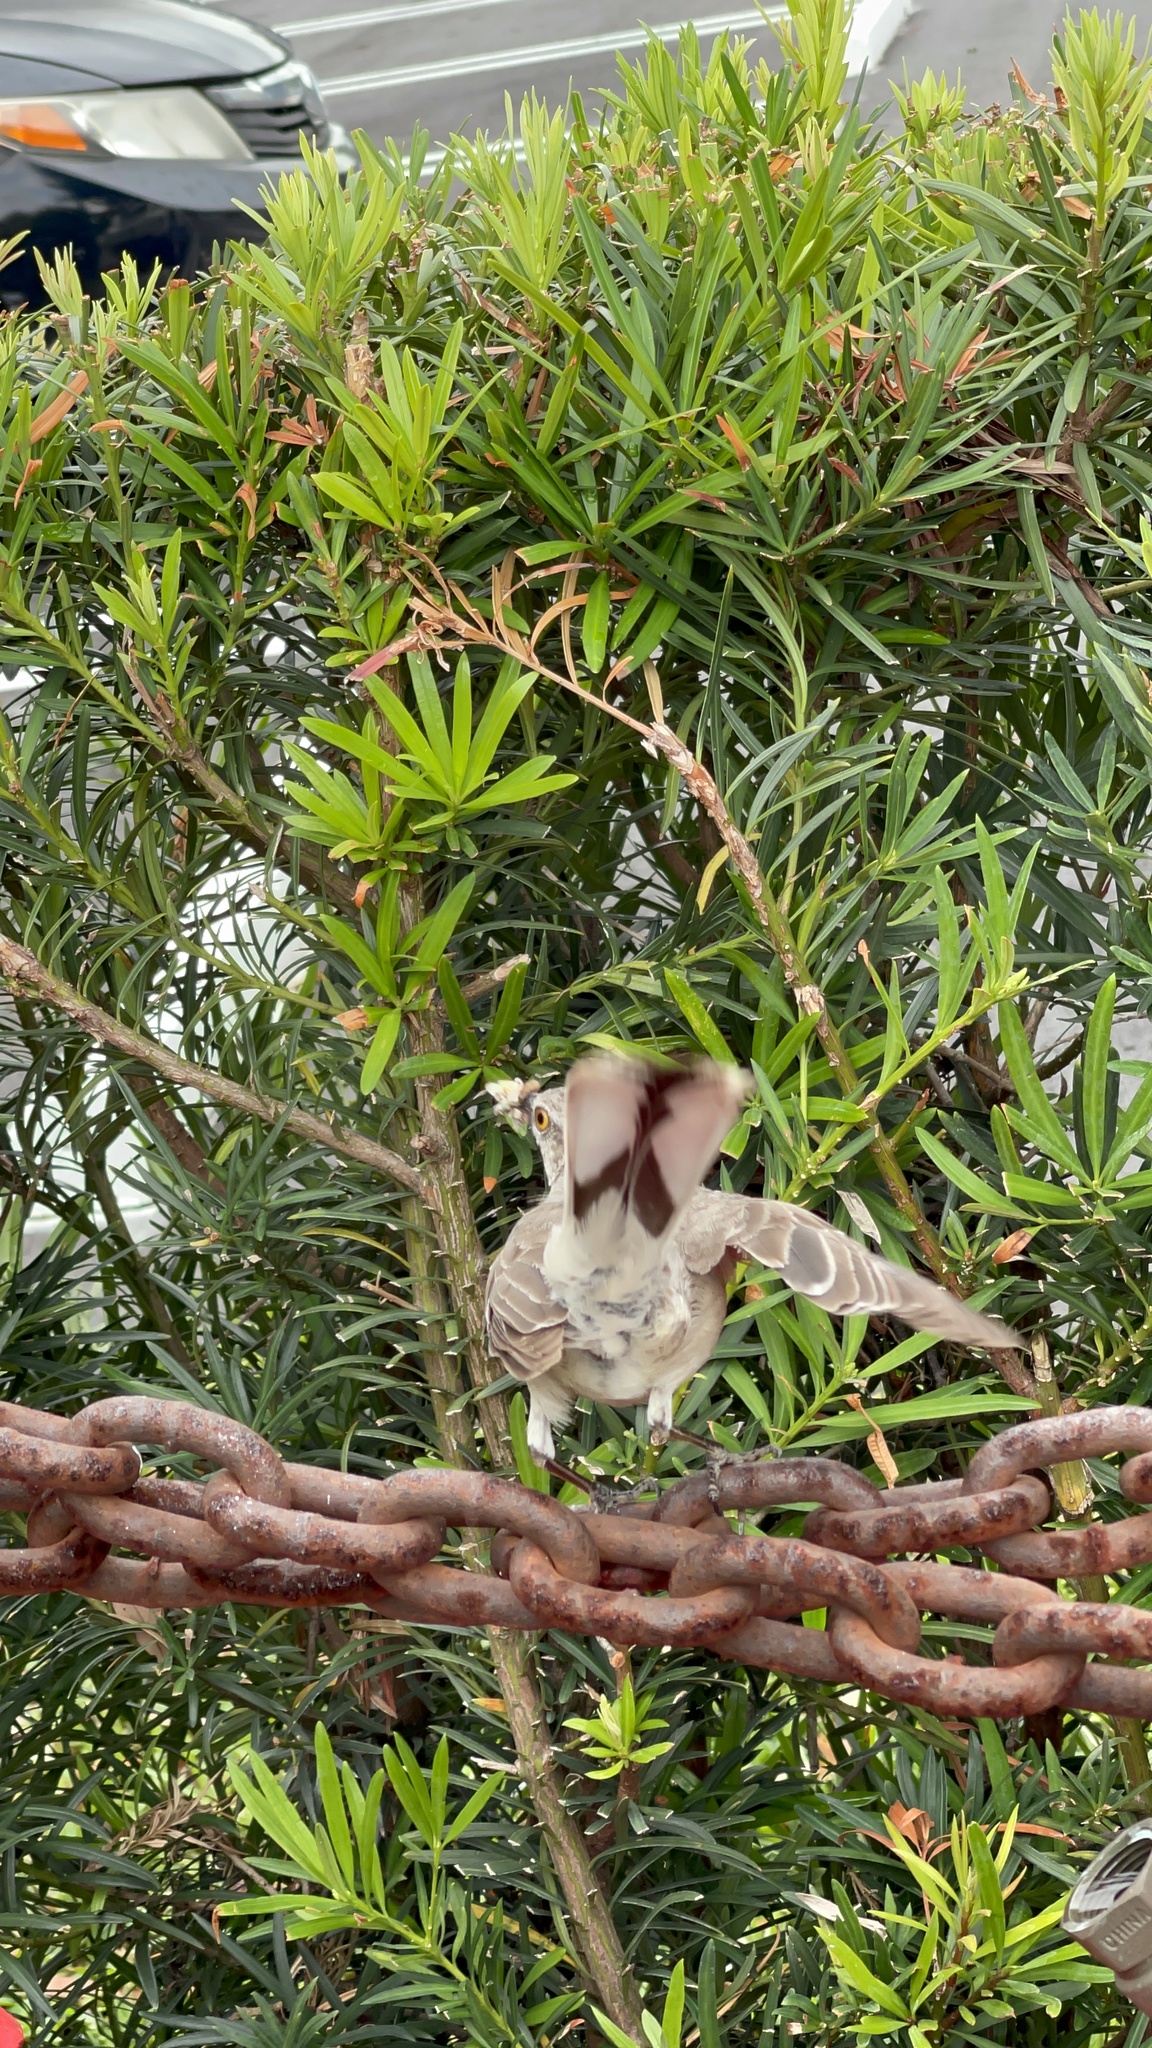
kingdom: Animalia
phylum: Chordata
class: Aves
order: Passeriformes
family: Mimidae
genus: Mimus
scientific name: Mimus polyglottos
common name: Northern mockingbird
